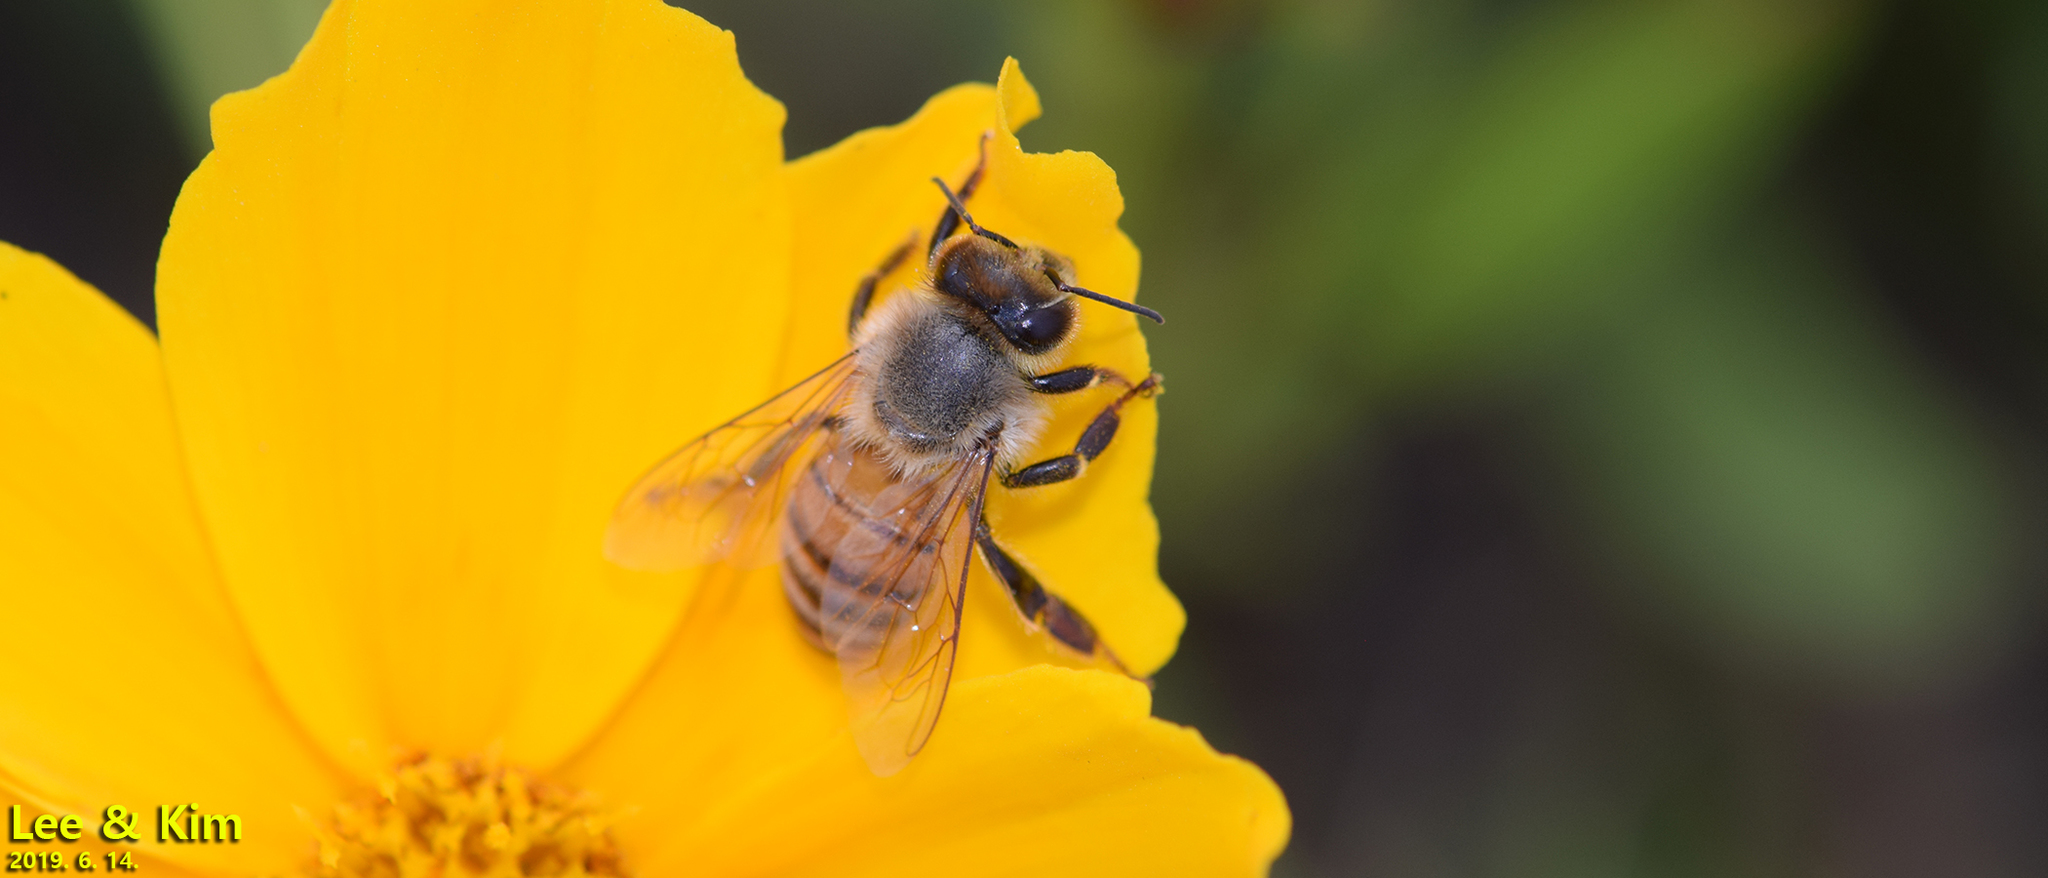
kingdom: Animalia
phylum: Arthropoda
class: Insecta
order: Hymenoptera
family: Apidae
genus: Apis
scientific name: Apis mellifera
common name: Honey bee
